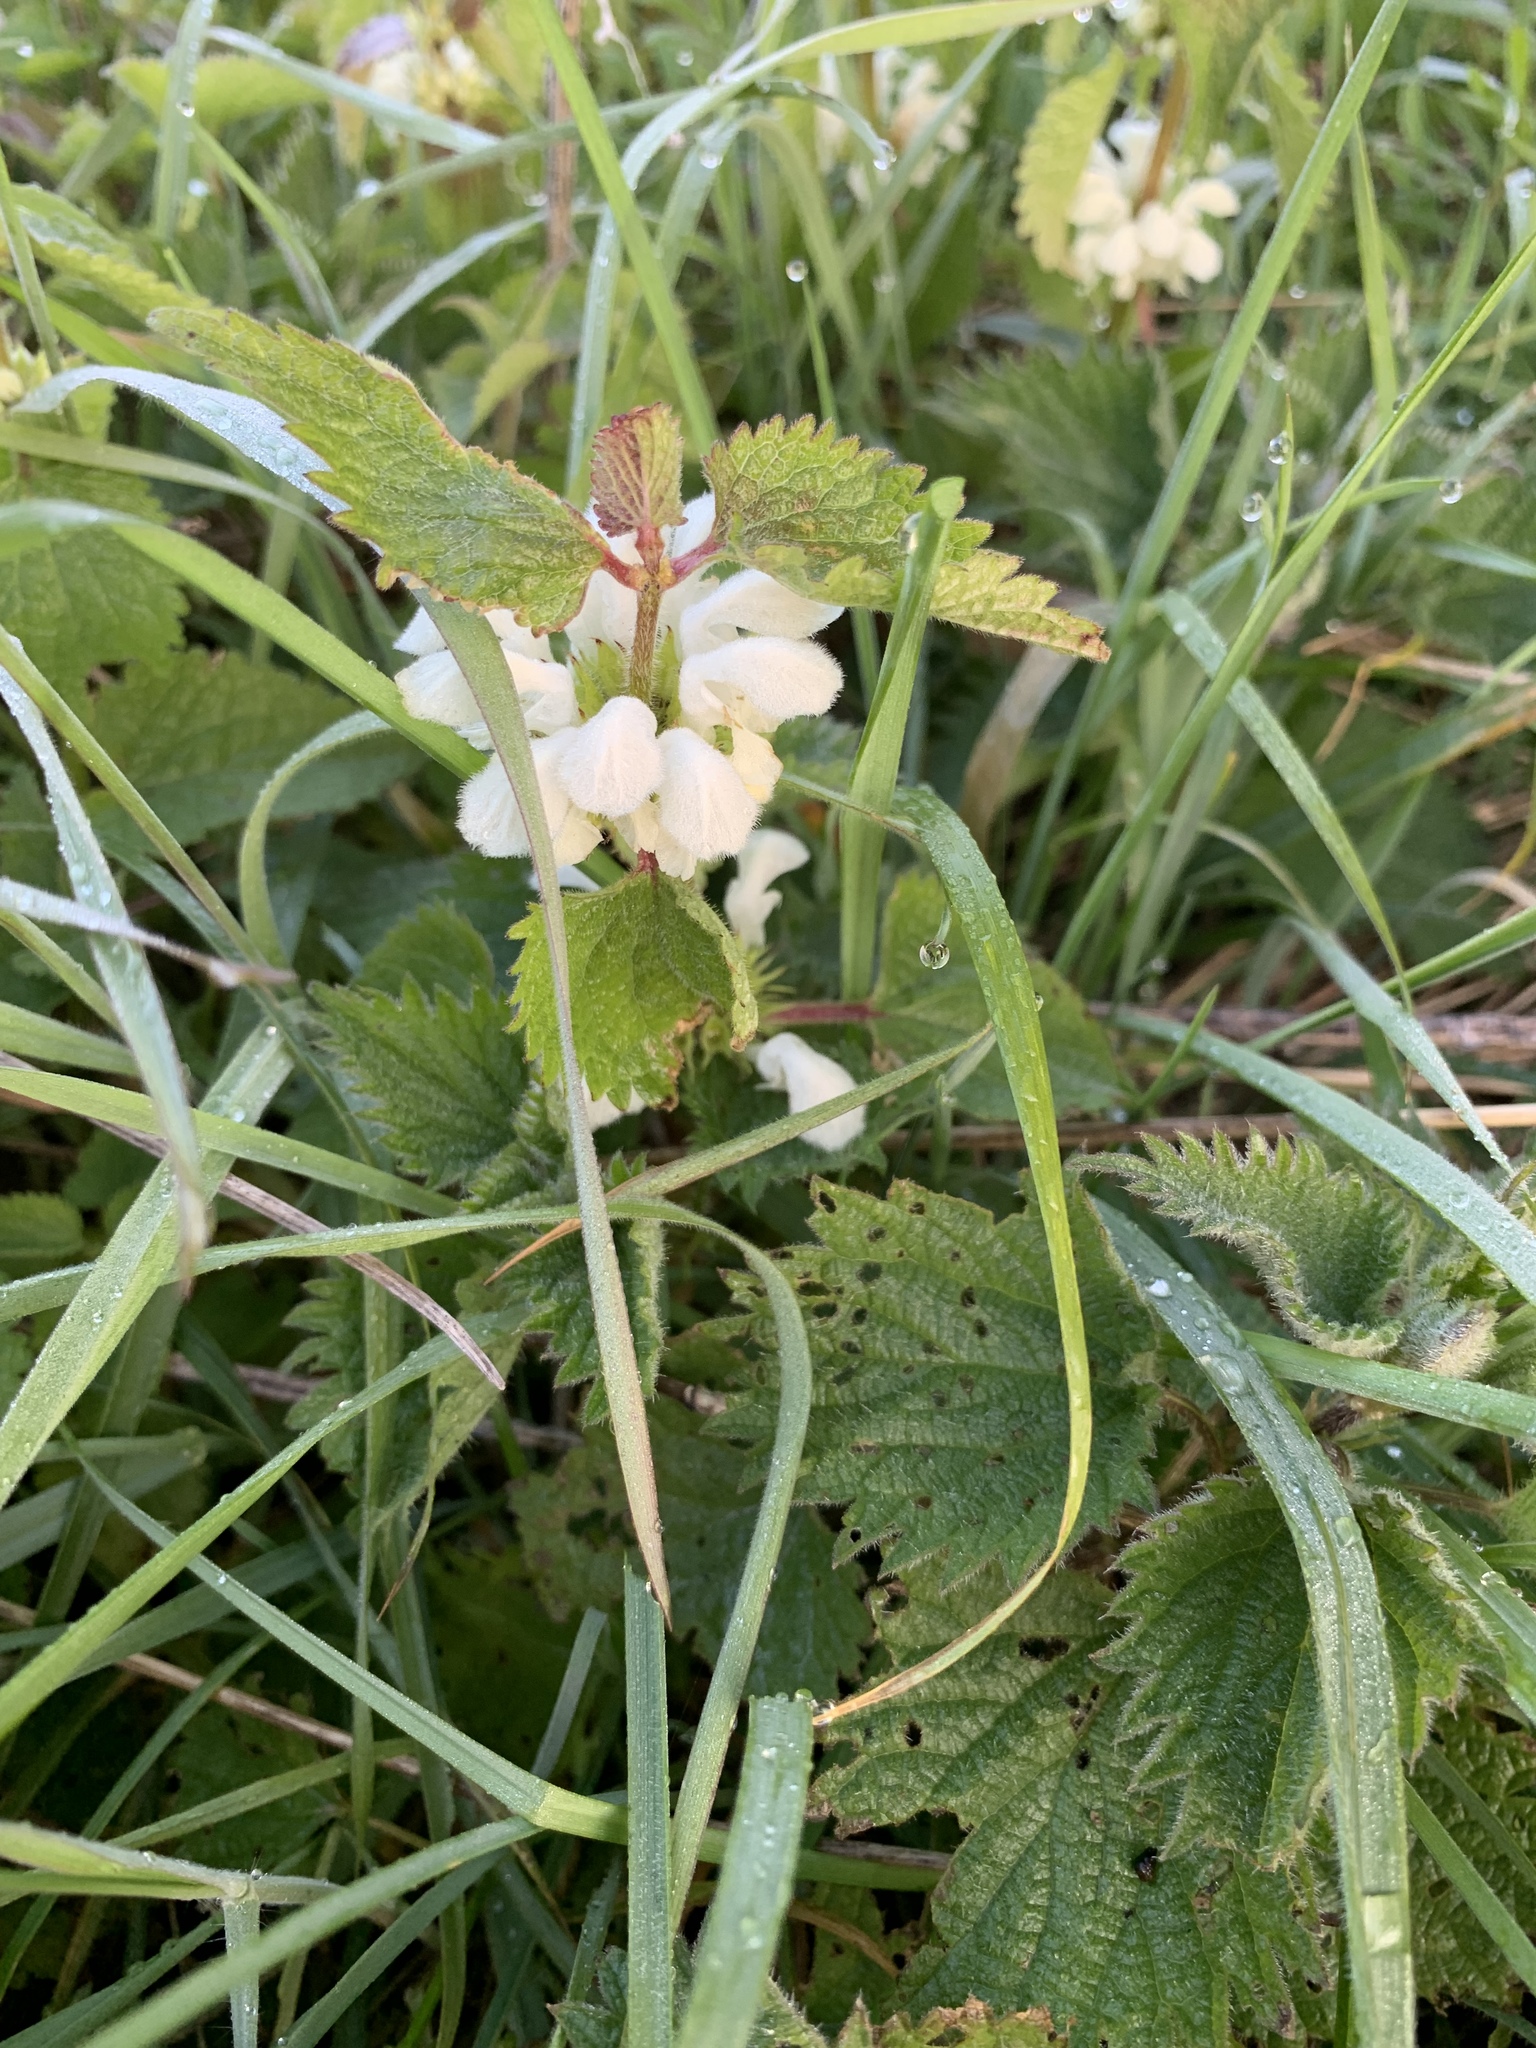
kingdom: Plantae
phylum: Tracheophyta
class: Magnoliopsida
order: Lamiales
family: Lamiaceae
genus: Lamium
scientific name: Lamium album
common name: White dead-nettle
